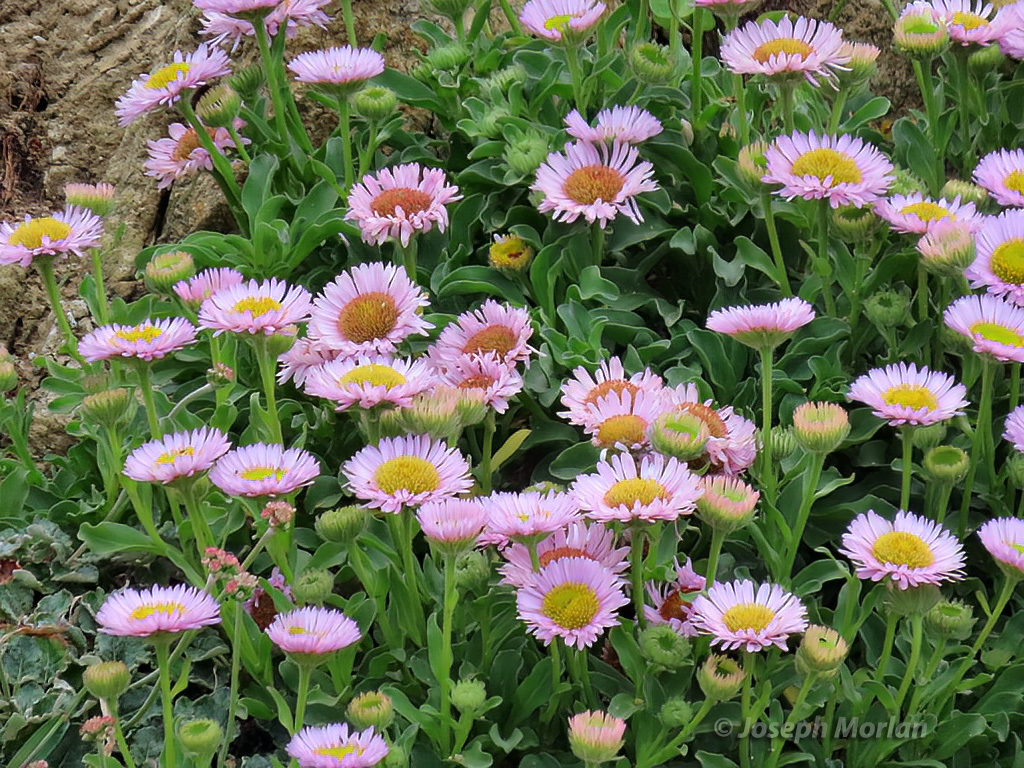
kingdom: Plantae
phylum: Tracheophyta
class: Magnoliopsida
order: Asterales
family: Asteraceae
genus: Erigeron
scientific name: Erigeron glaucus
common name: Seaside daisy
